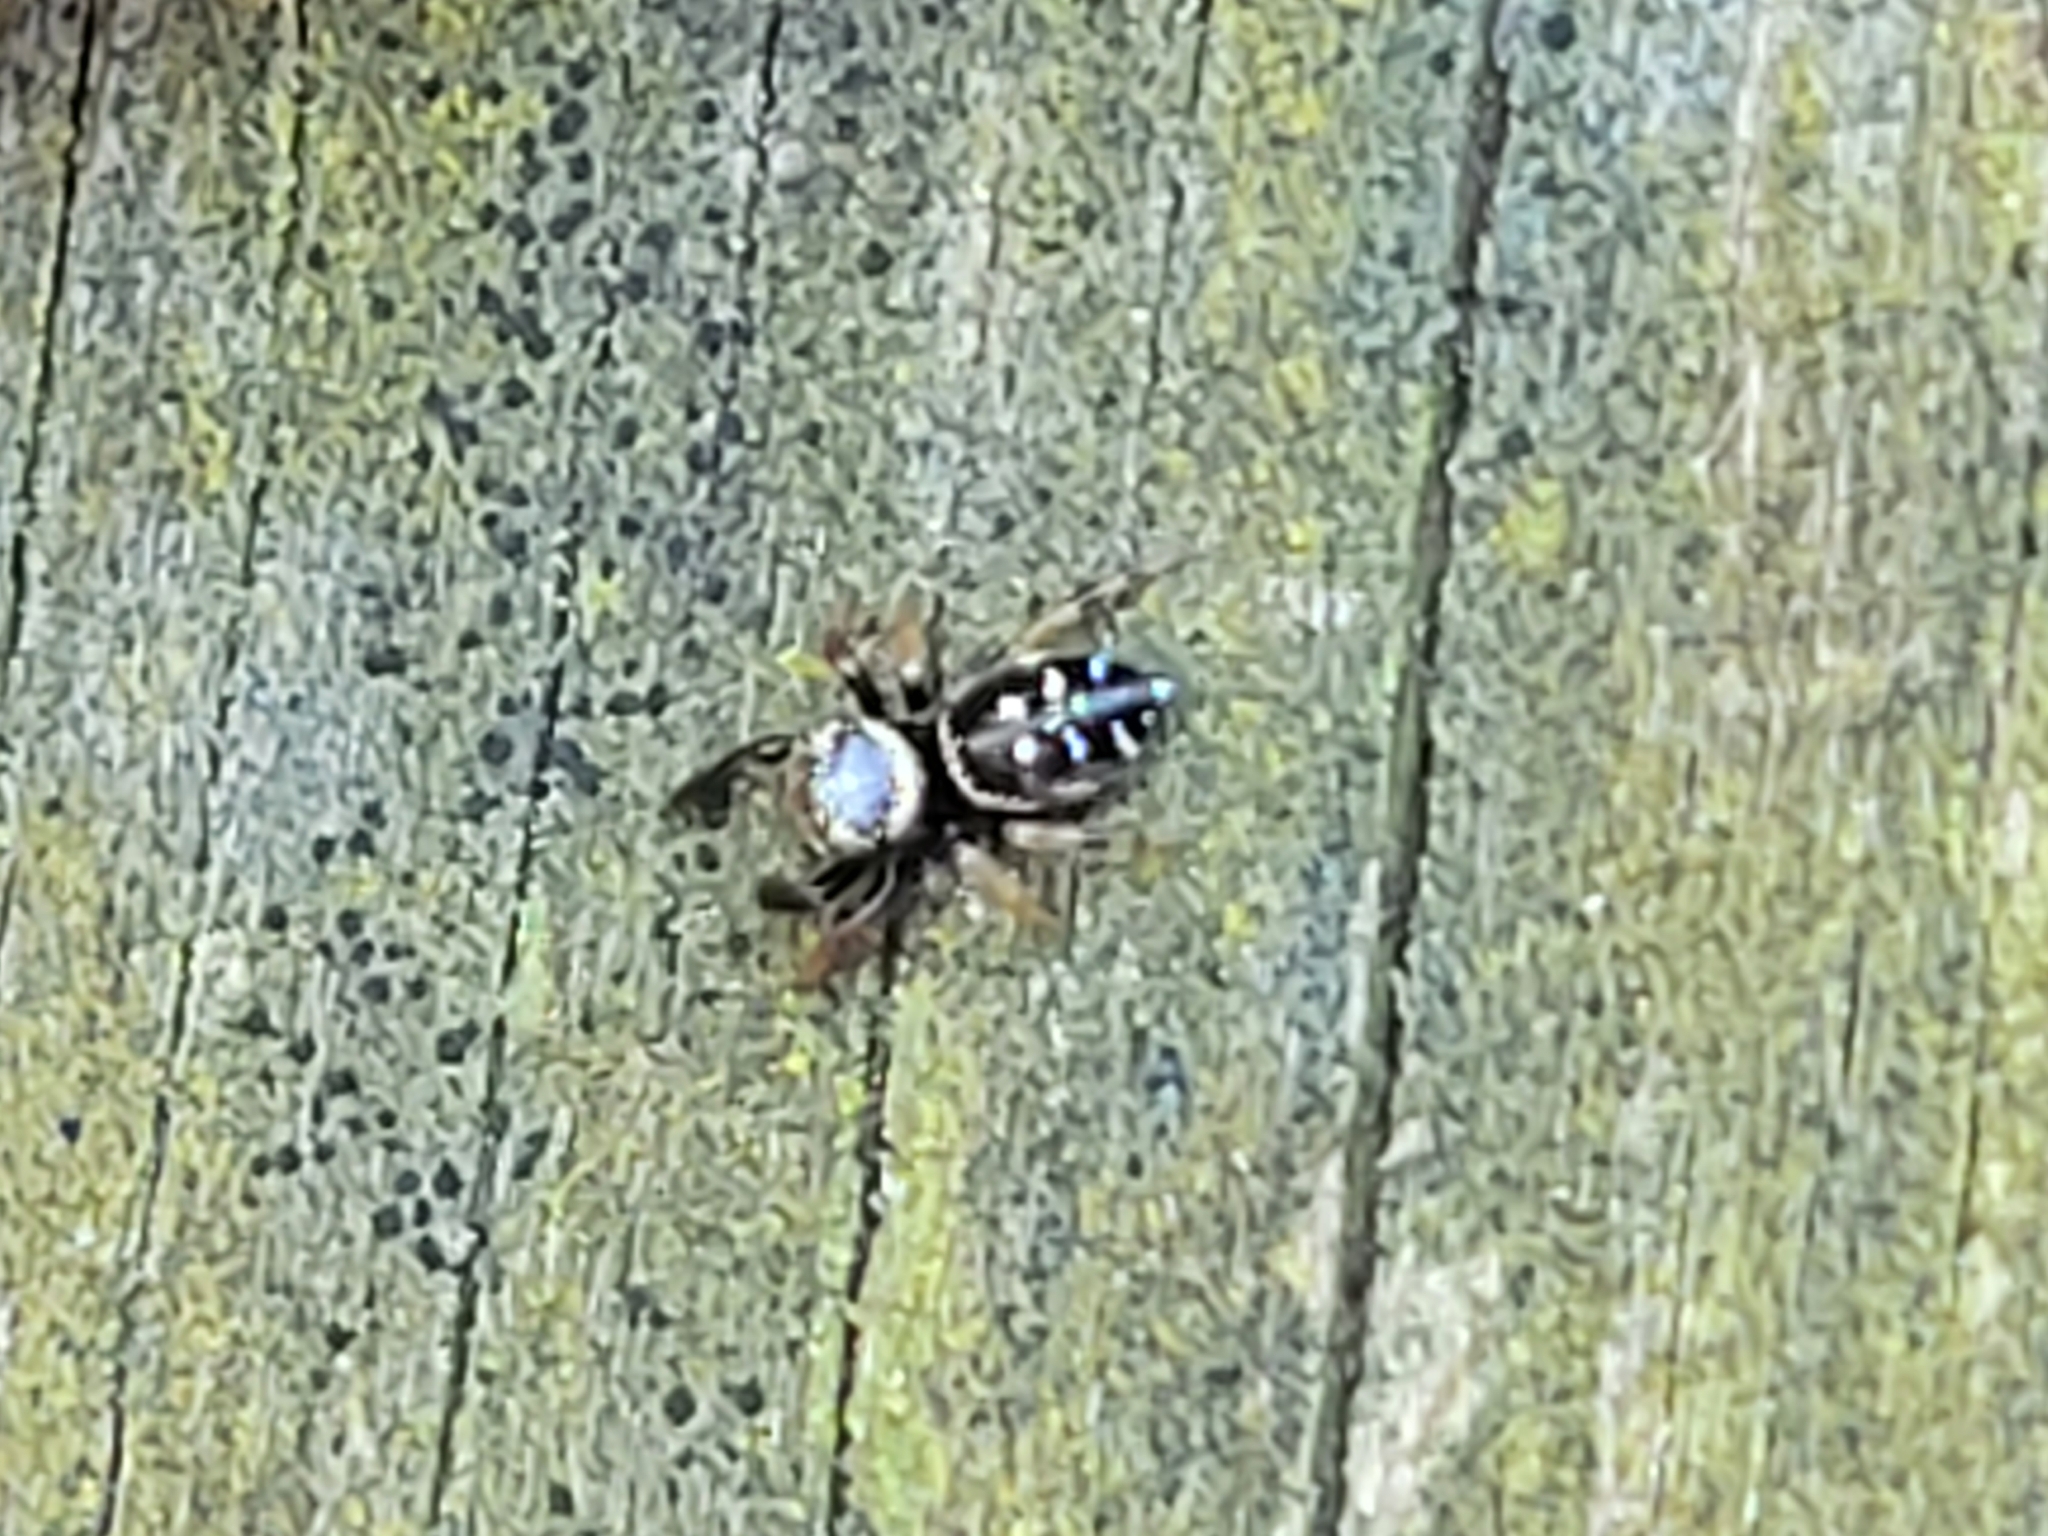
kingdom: Animalia
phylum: Arthropoda
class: Arachnida
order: Araneae
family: Salticidae
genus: Paraphidippus
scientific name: Paraphidippus aurantius
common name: Jumping spiders
